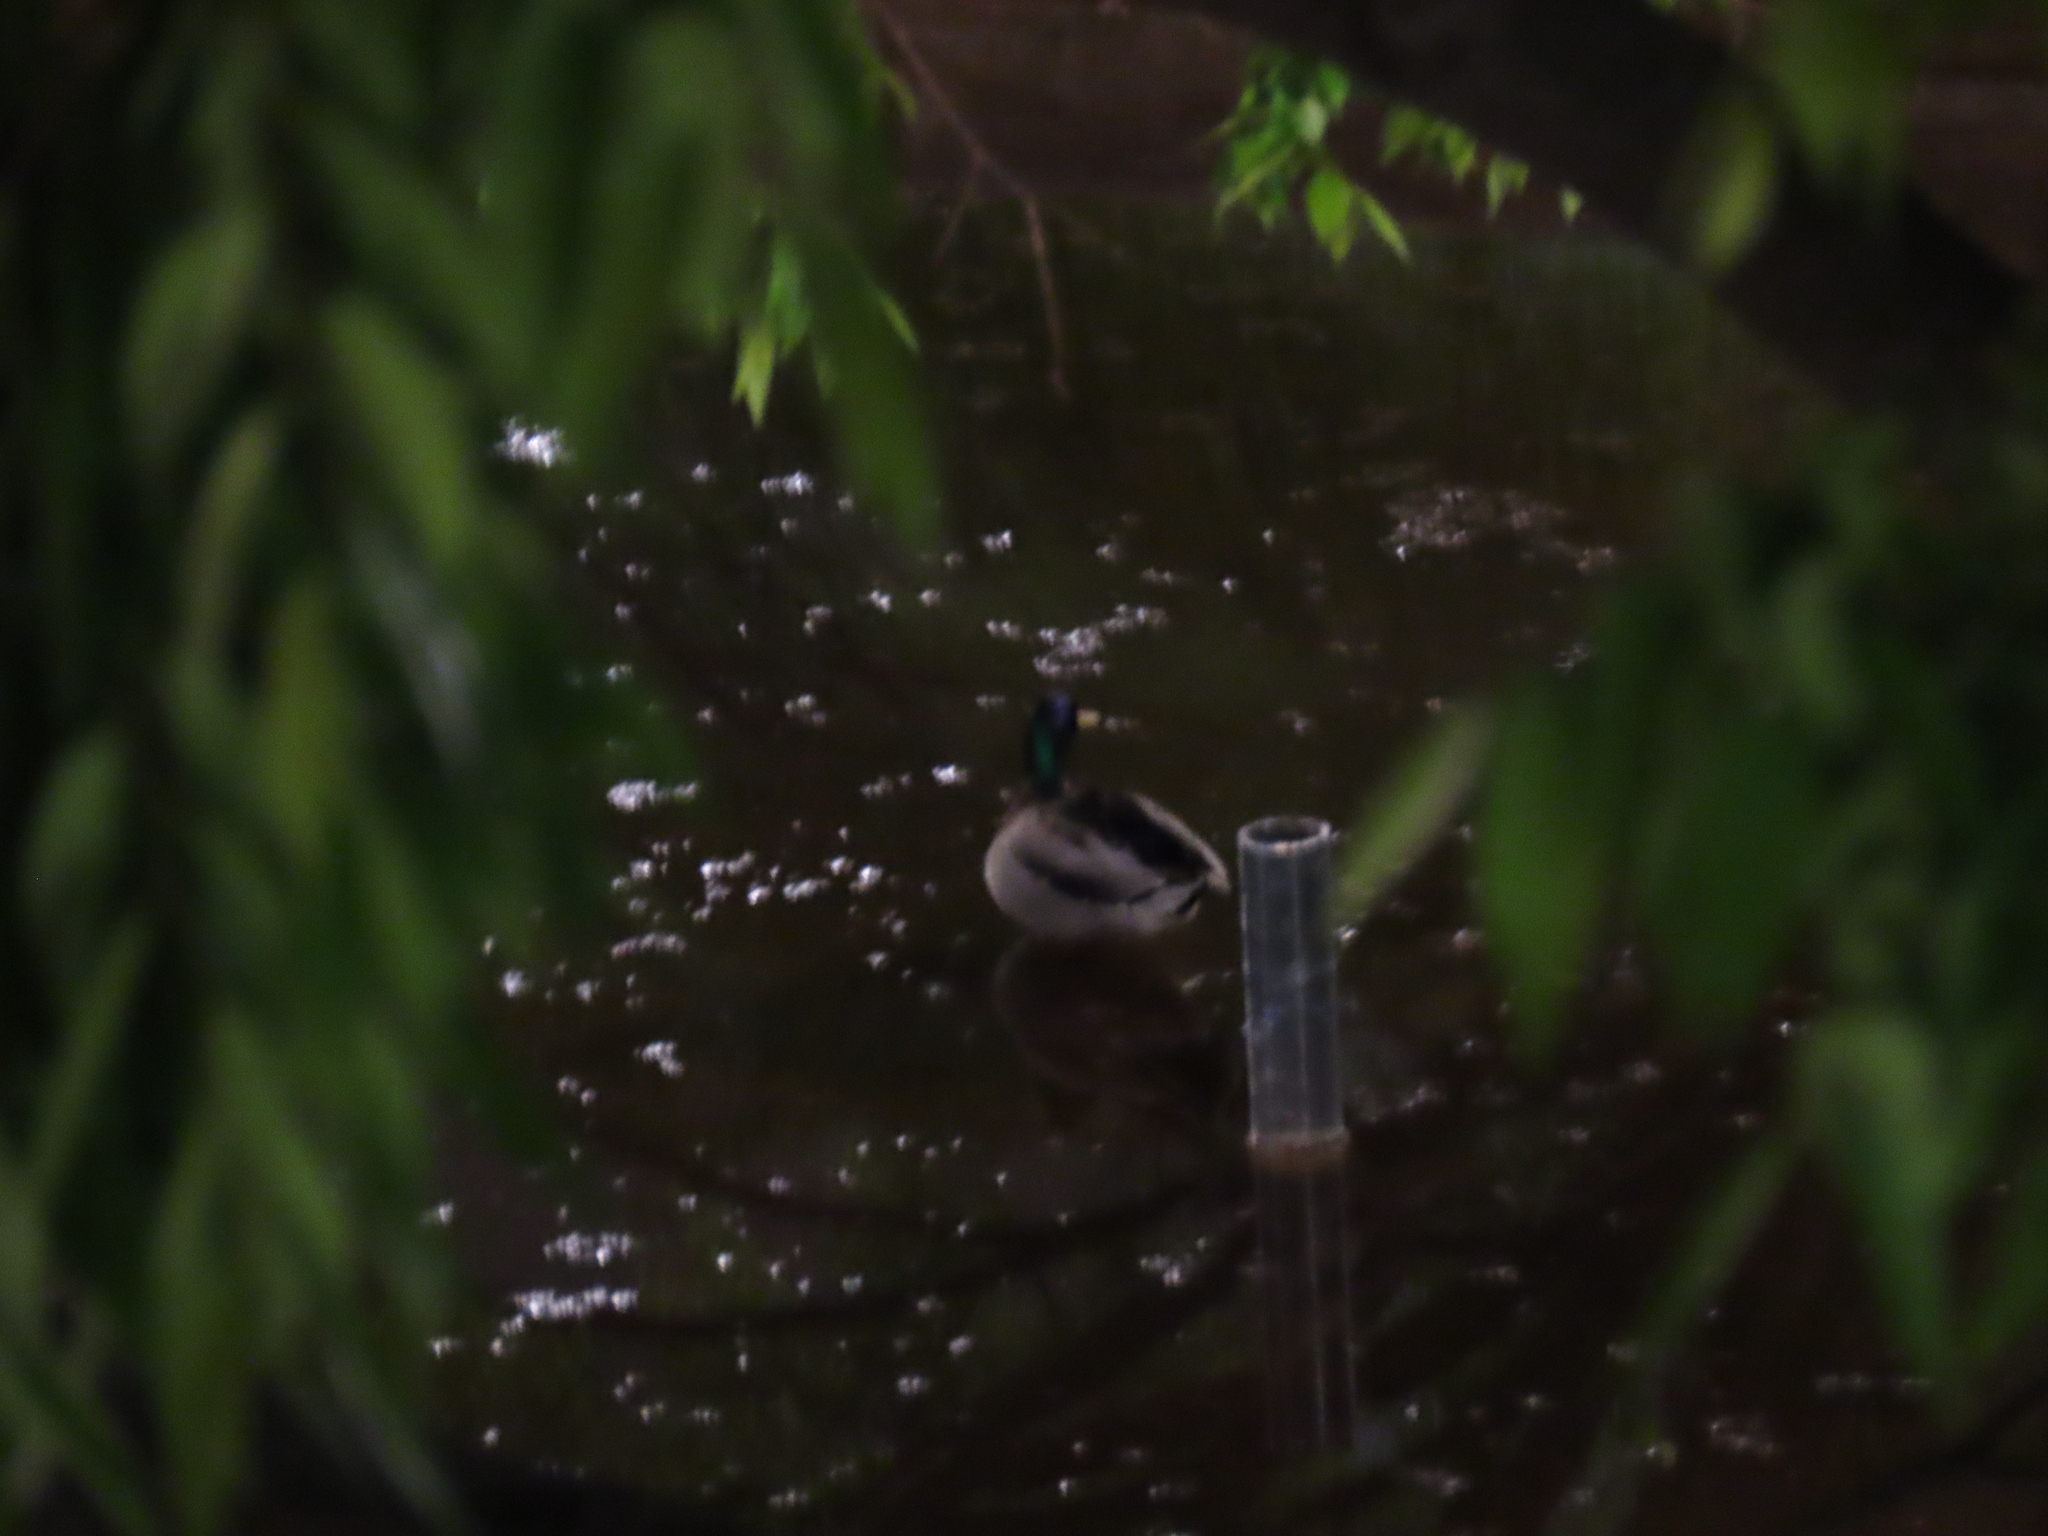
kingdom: Animalia
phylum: Chordata
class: Aves
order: Anseriformes
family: Anatidae
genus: Anas
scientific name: Anas platyrhynchos
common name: Mallard
